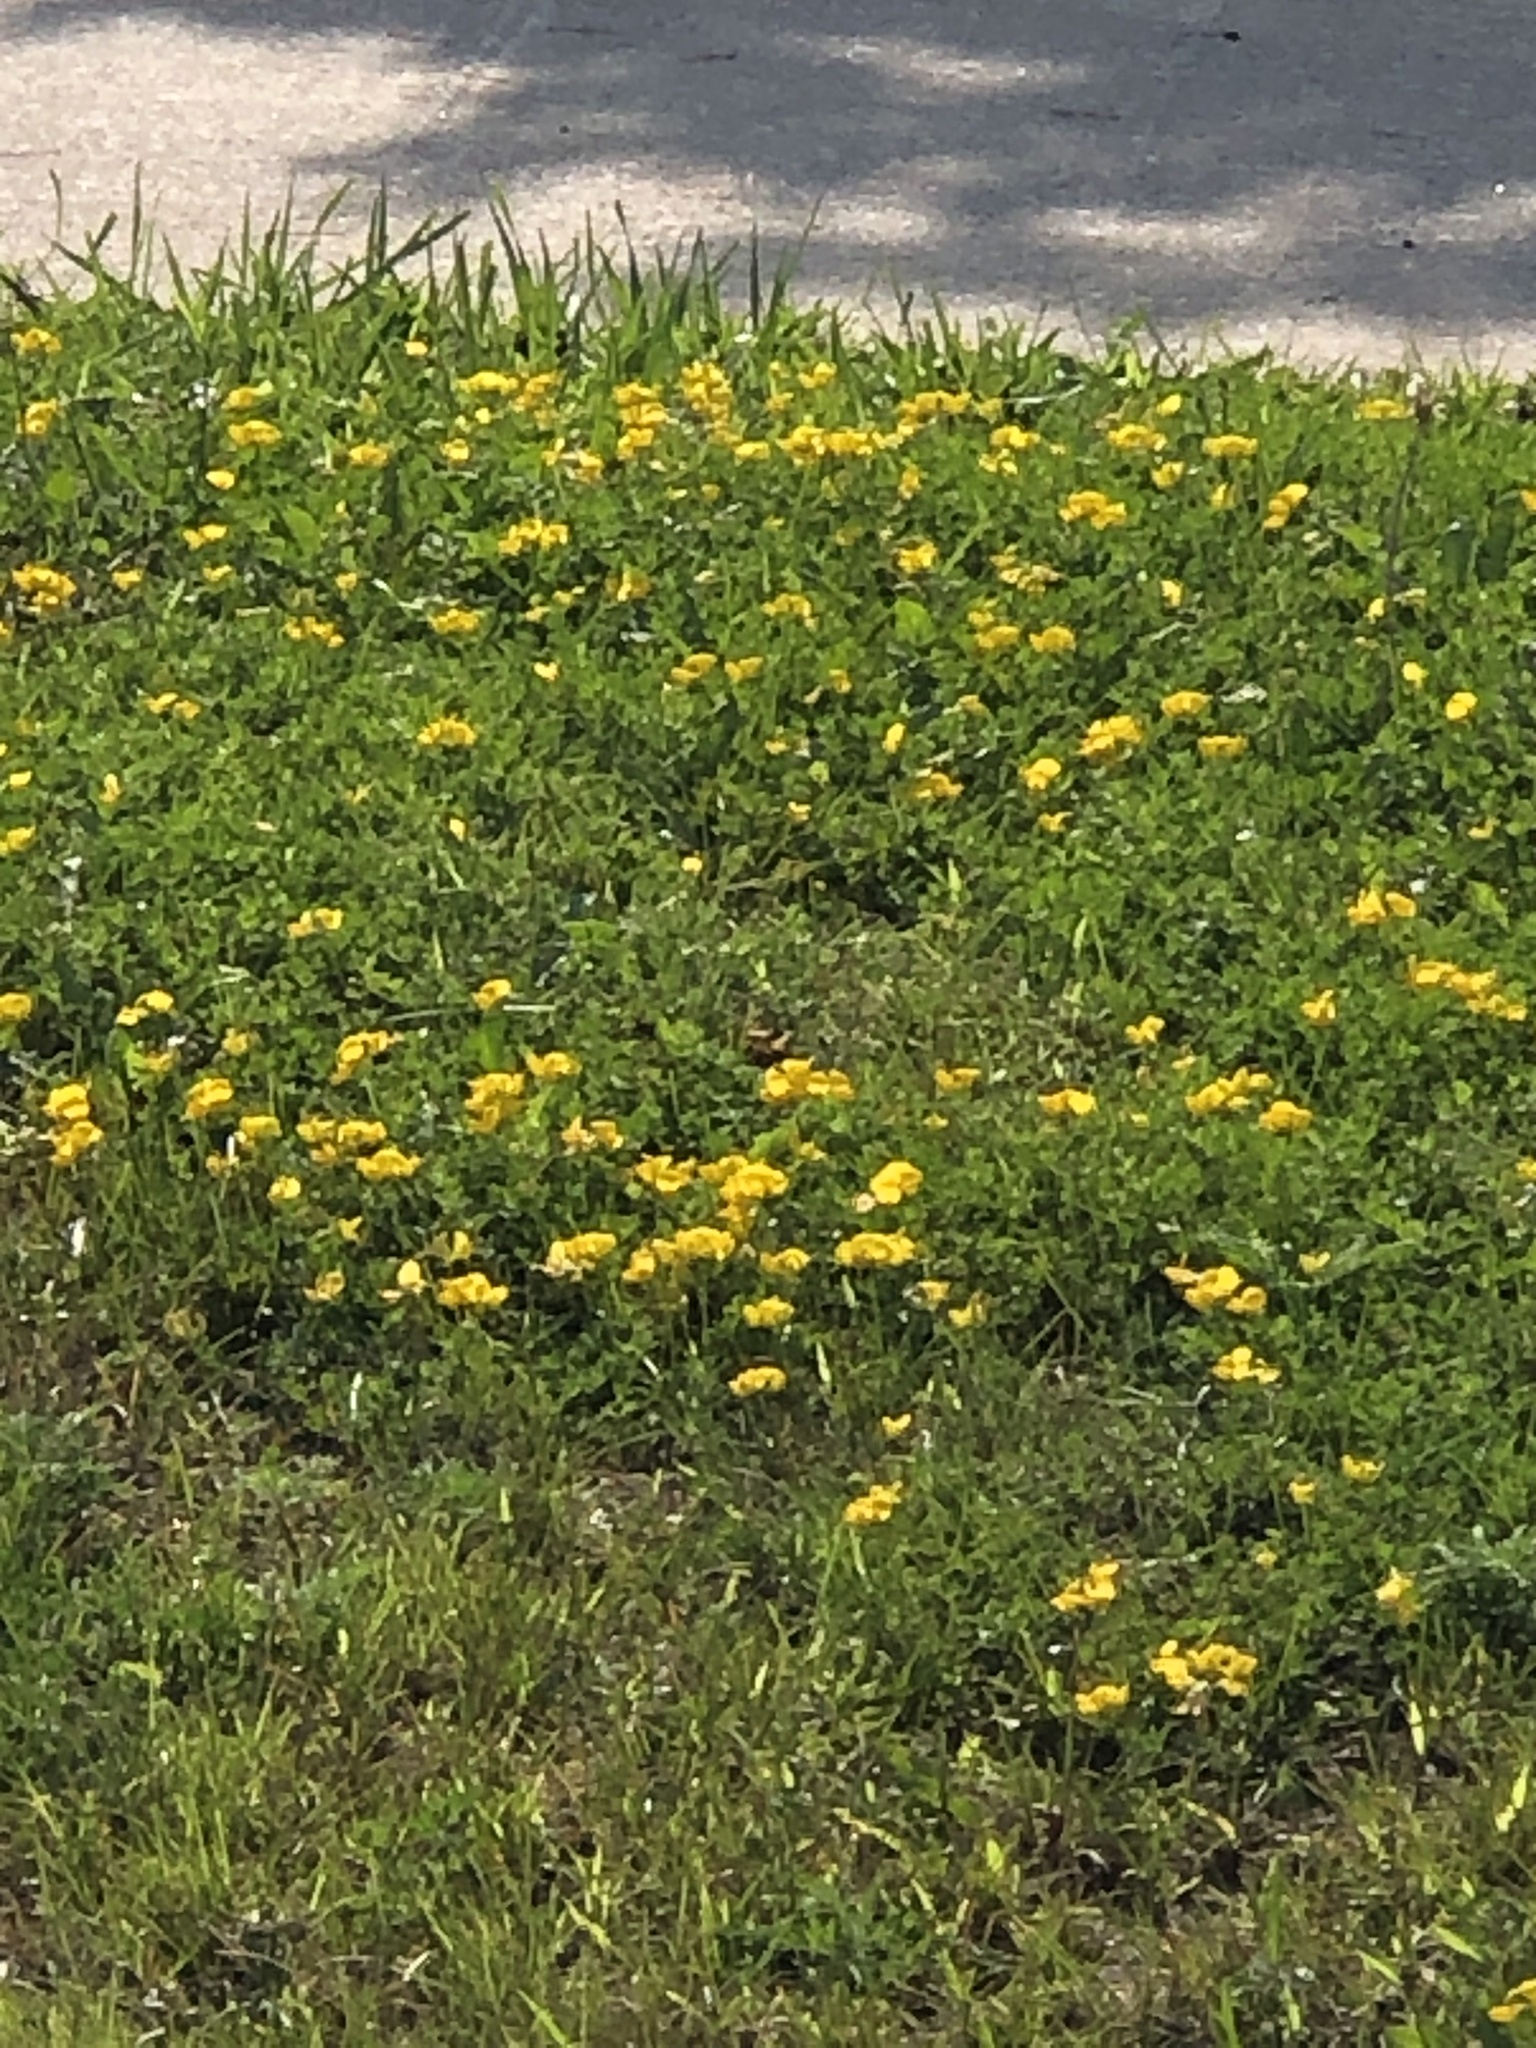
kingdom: Plantae
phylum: Tracheophyta
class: Magnoliopsida
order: Fabales
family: Fabaceae
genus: Lotus
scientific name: Lotus corniculatus
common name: Common bird's-foot-trefoil
